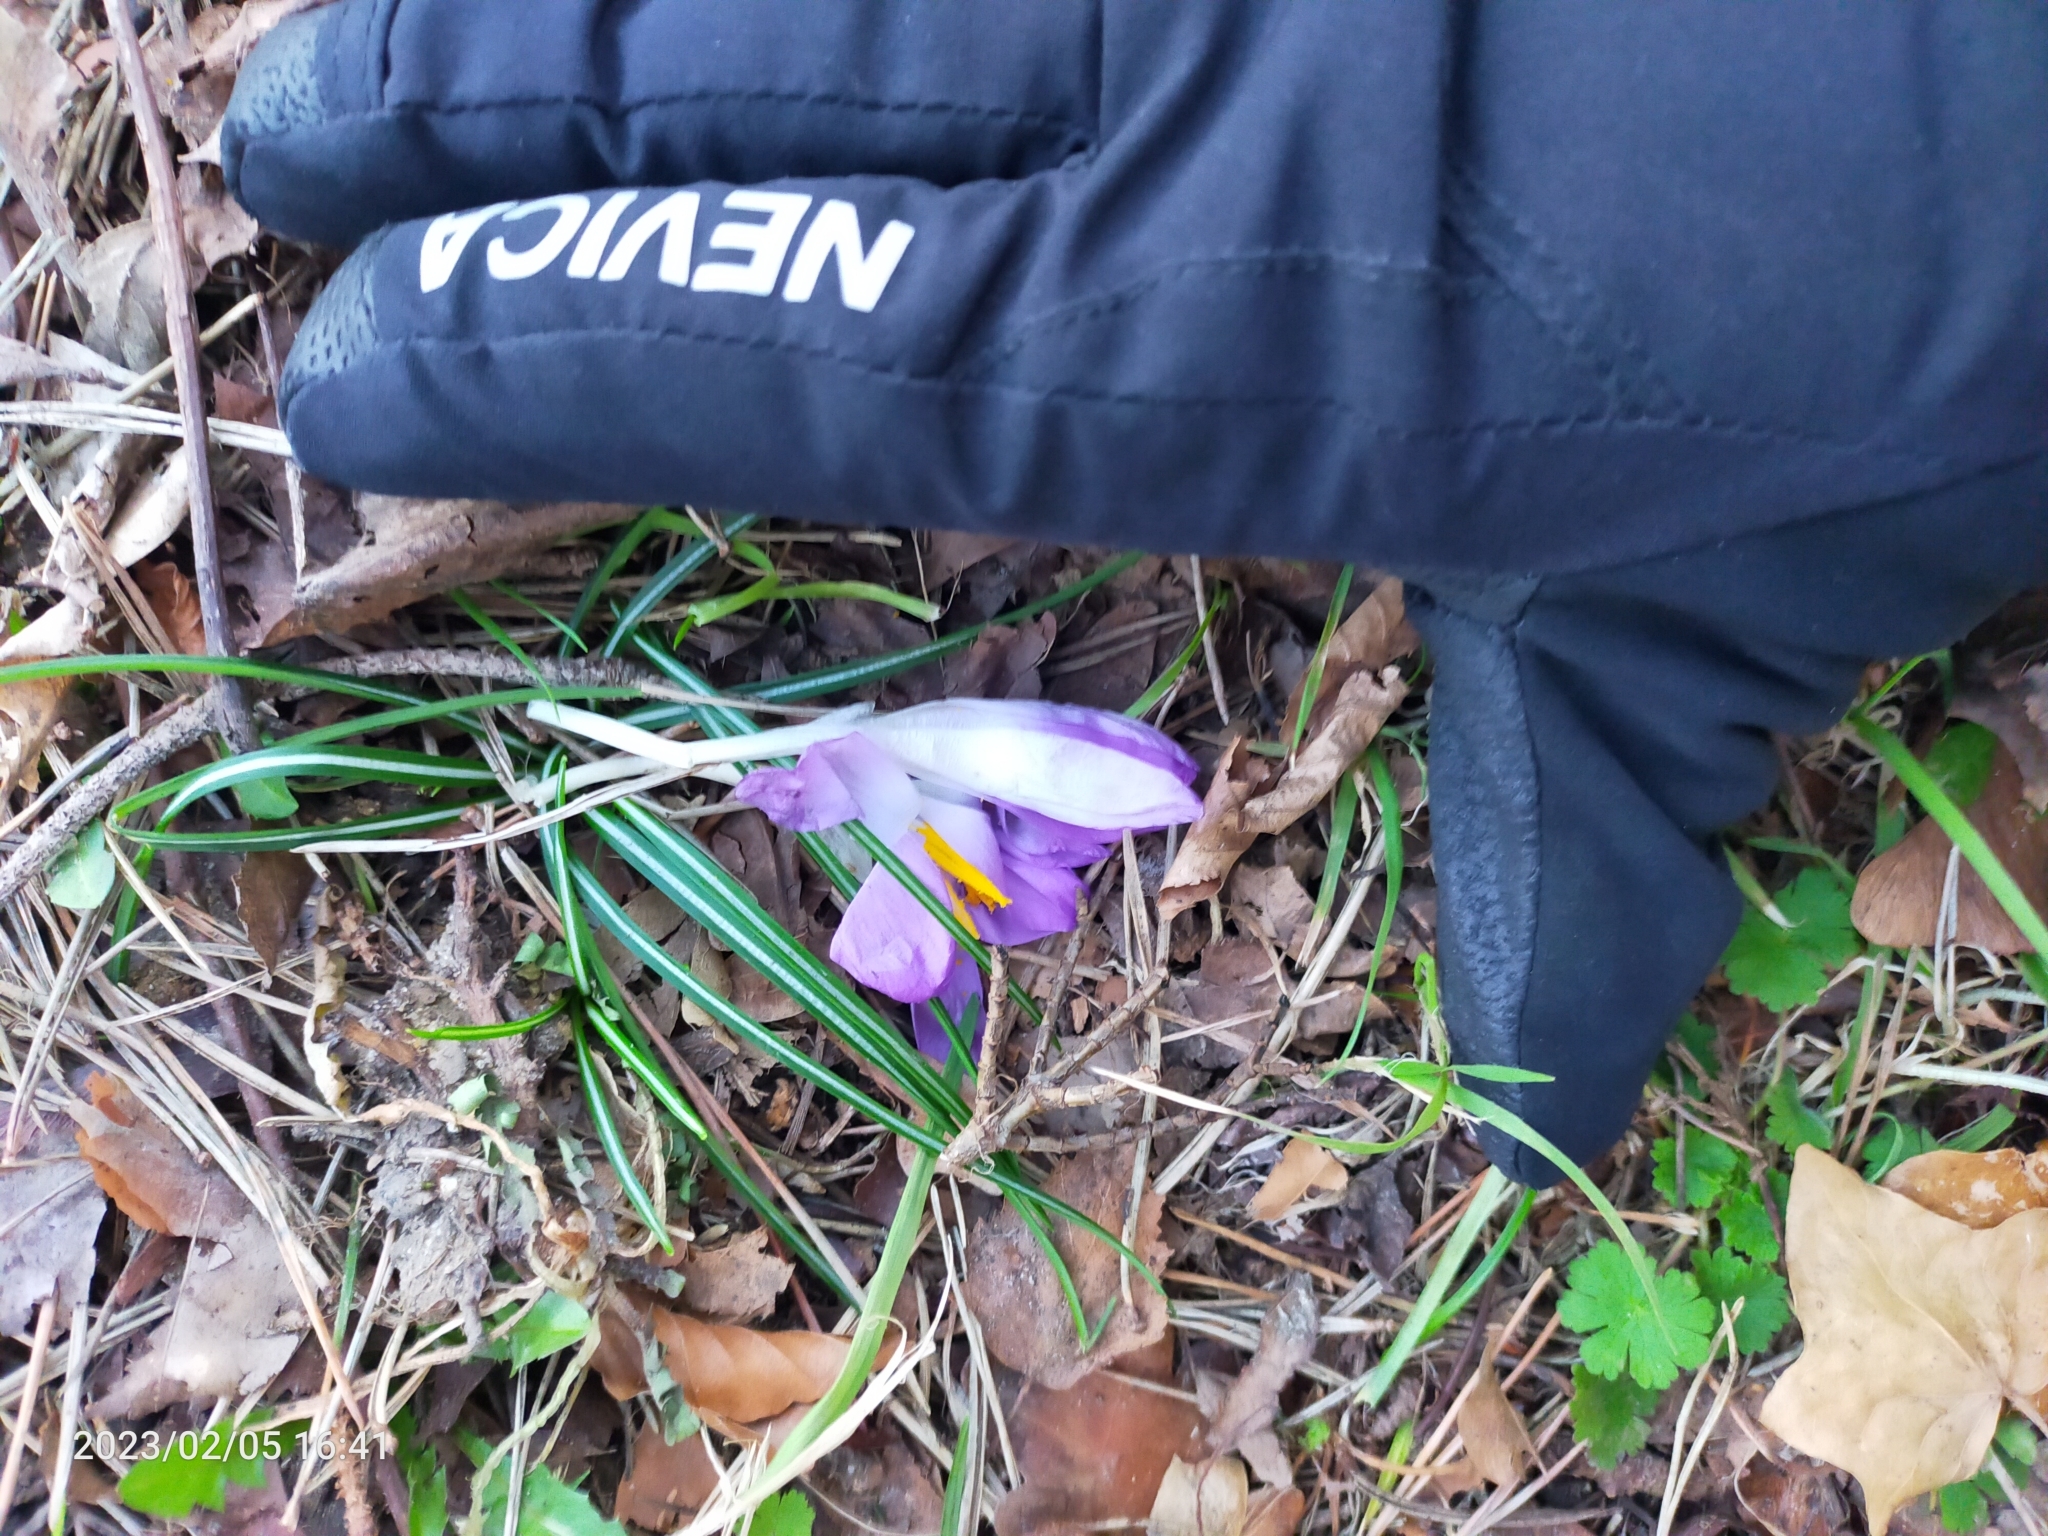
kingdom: Plantae
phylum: Tracheophyta
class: Liliopsida
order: Asparagales
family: Iridaceae
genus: Crocus
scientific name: Crocus tommasinianus
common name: Early crocus
